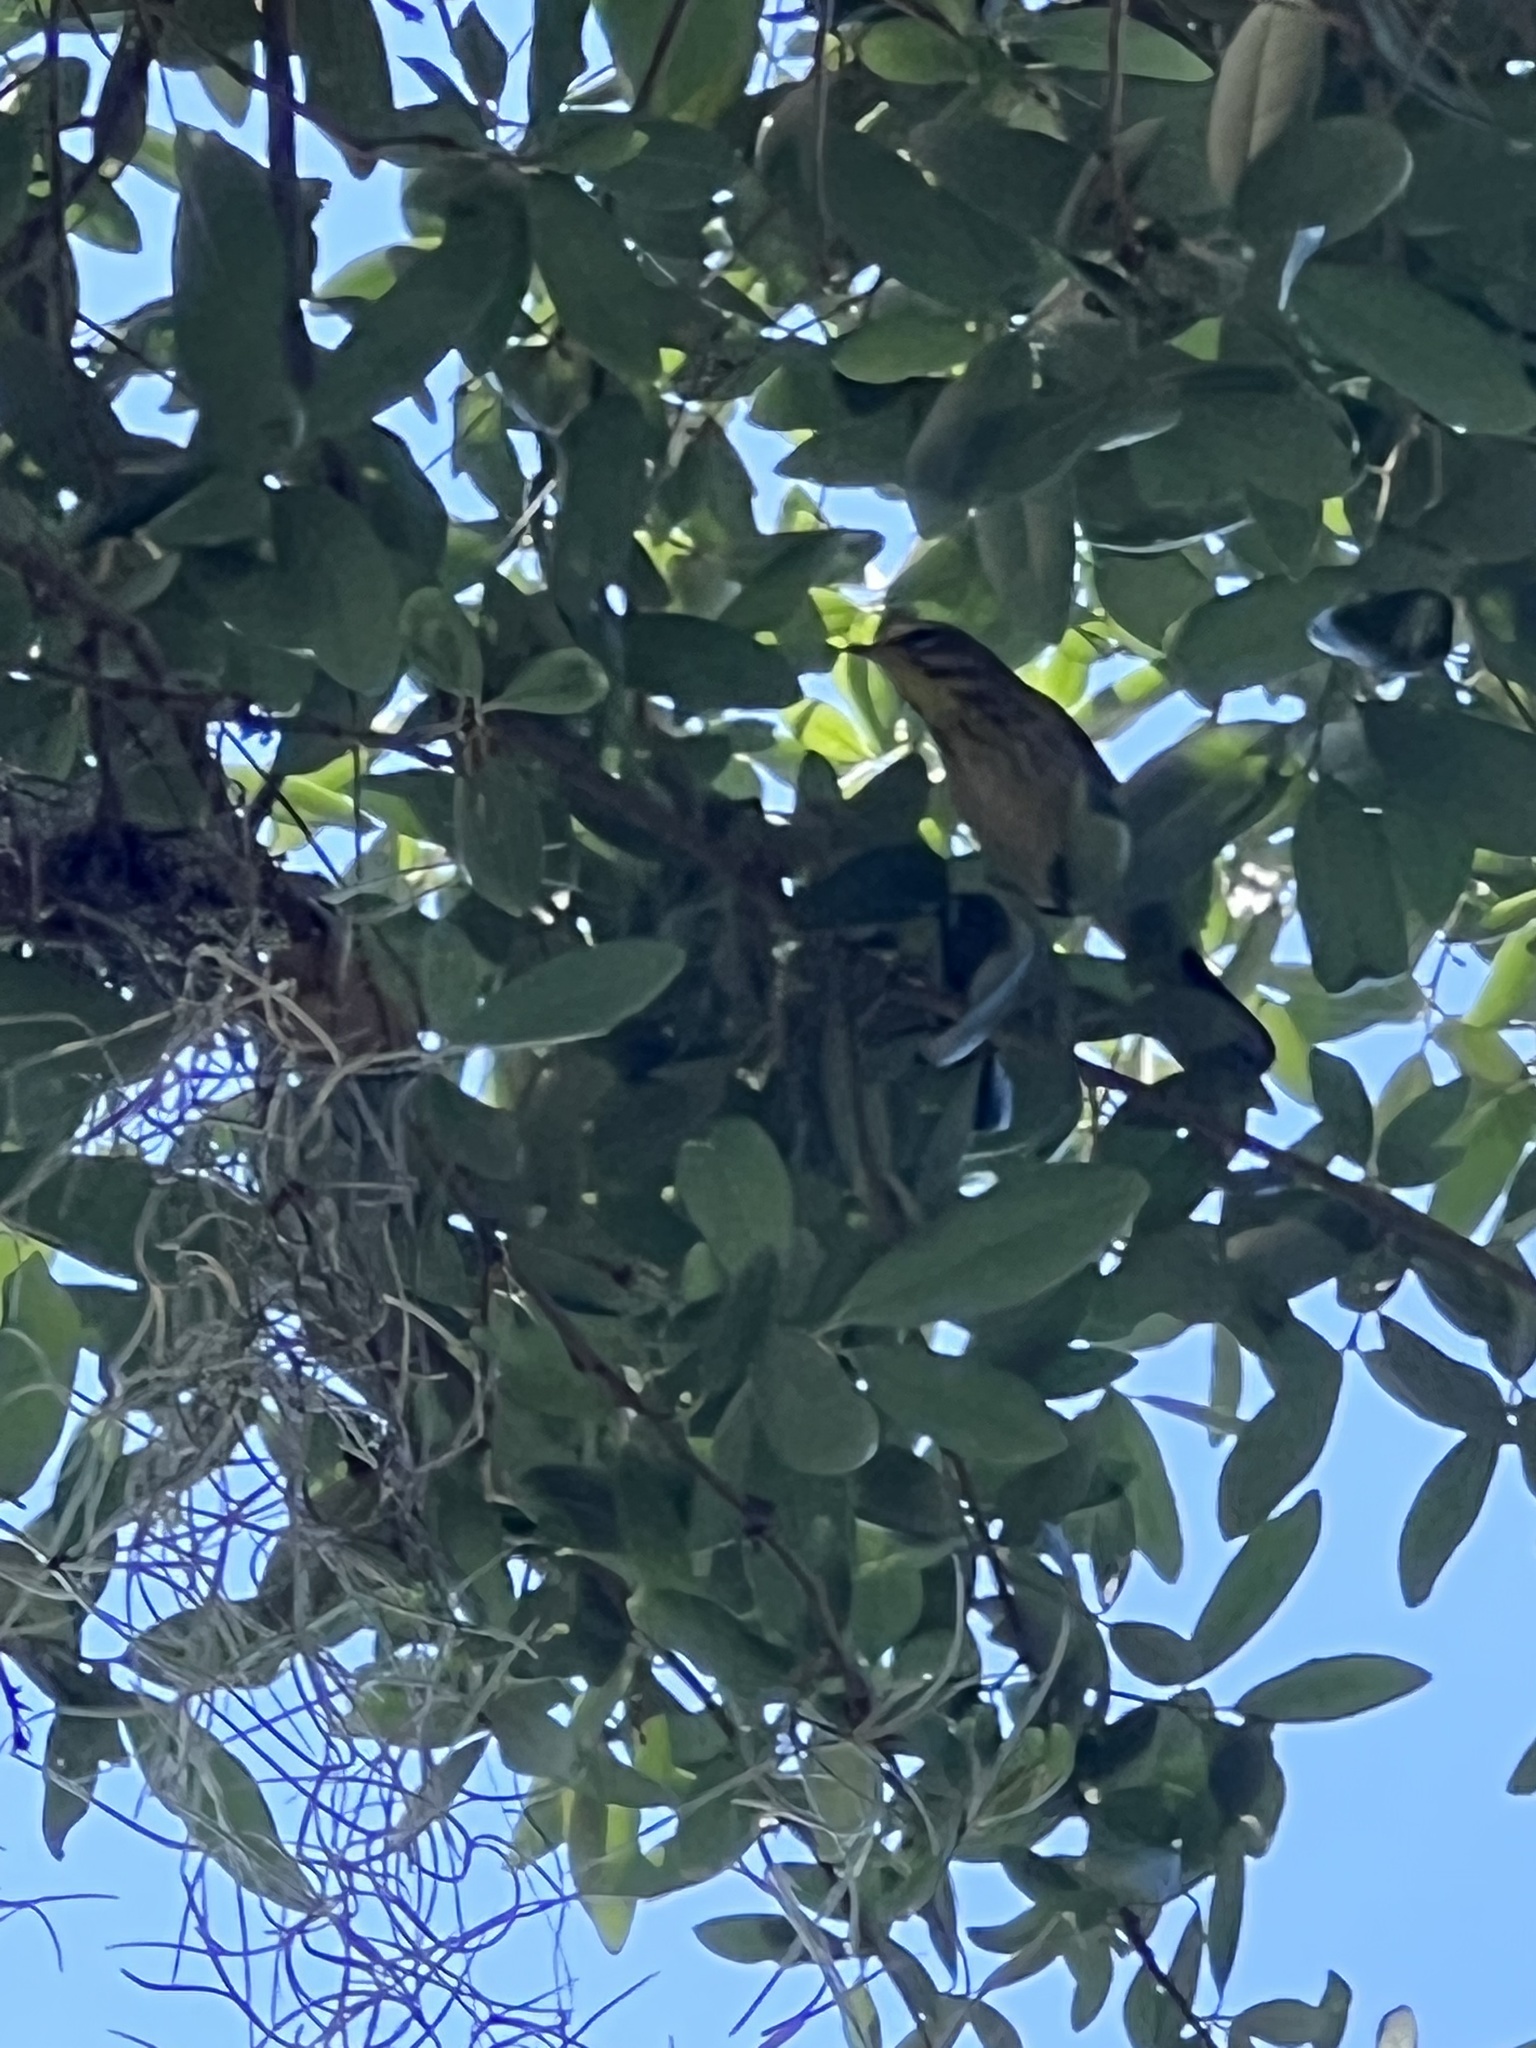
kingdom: Animalia
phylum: Chordata
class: Aves
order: Passeriformes
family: Parulidae
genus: Setophaga
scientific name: Setophaga palmarum
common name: Palm warbler
